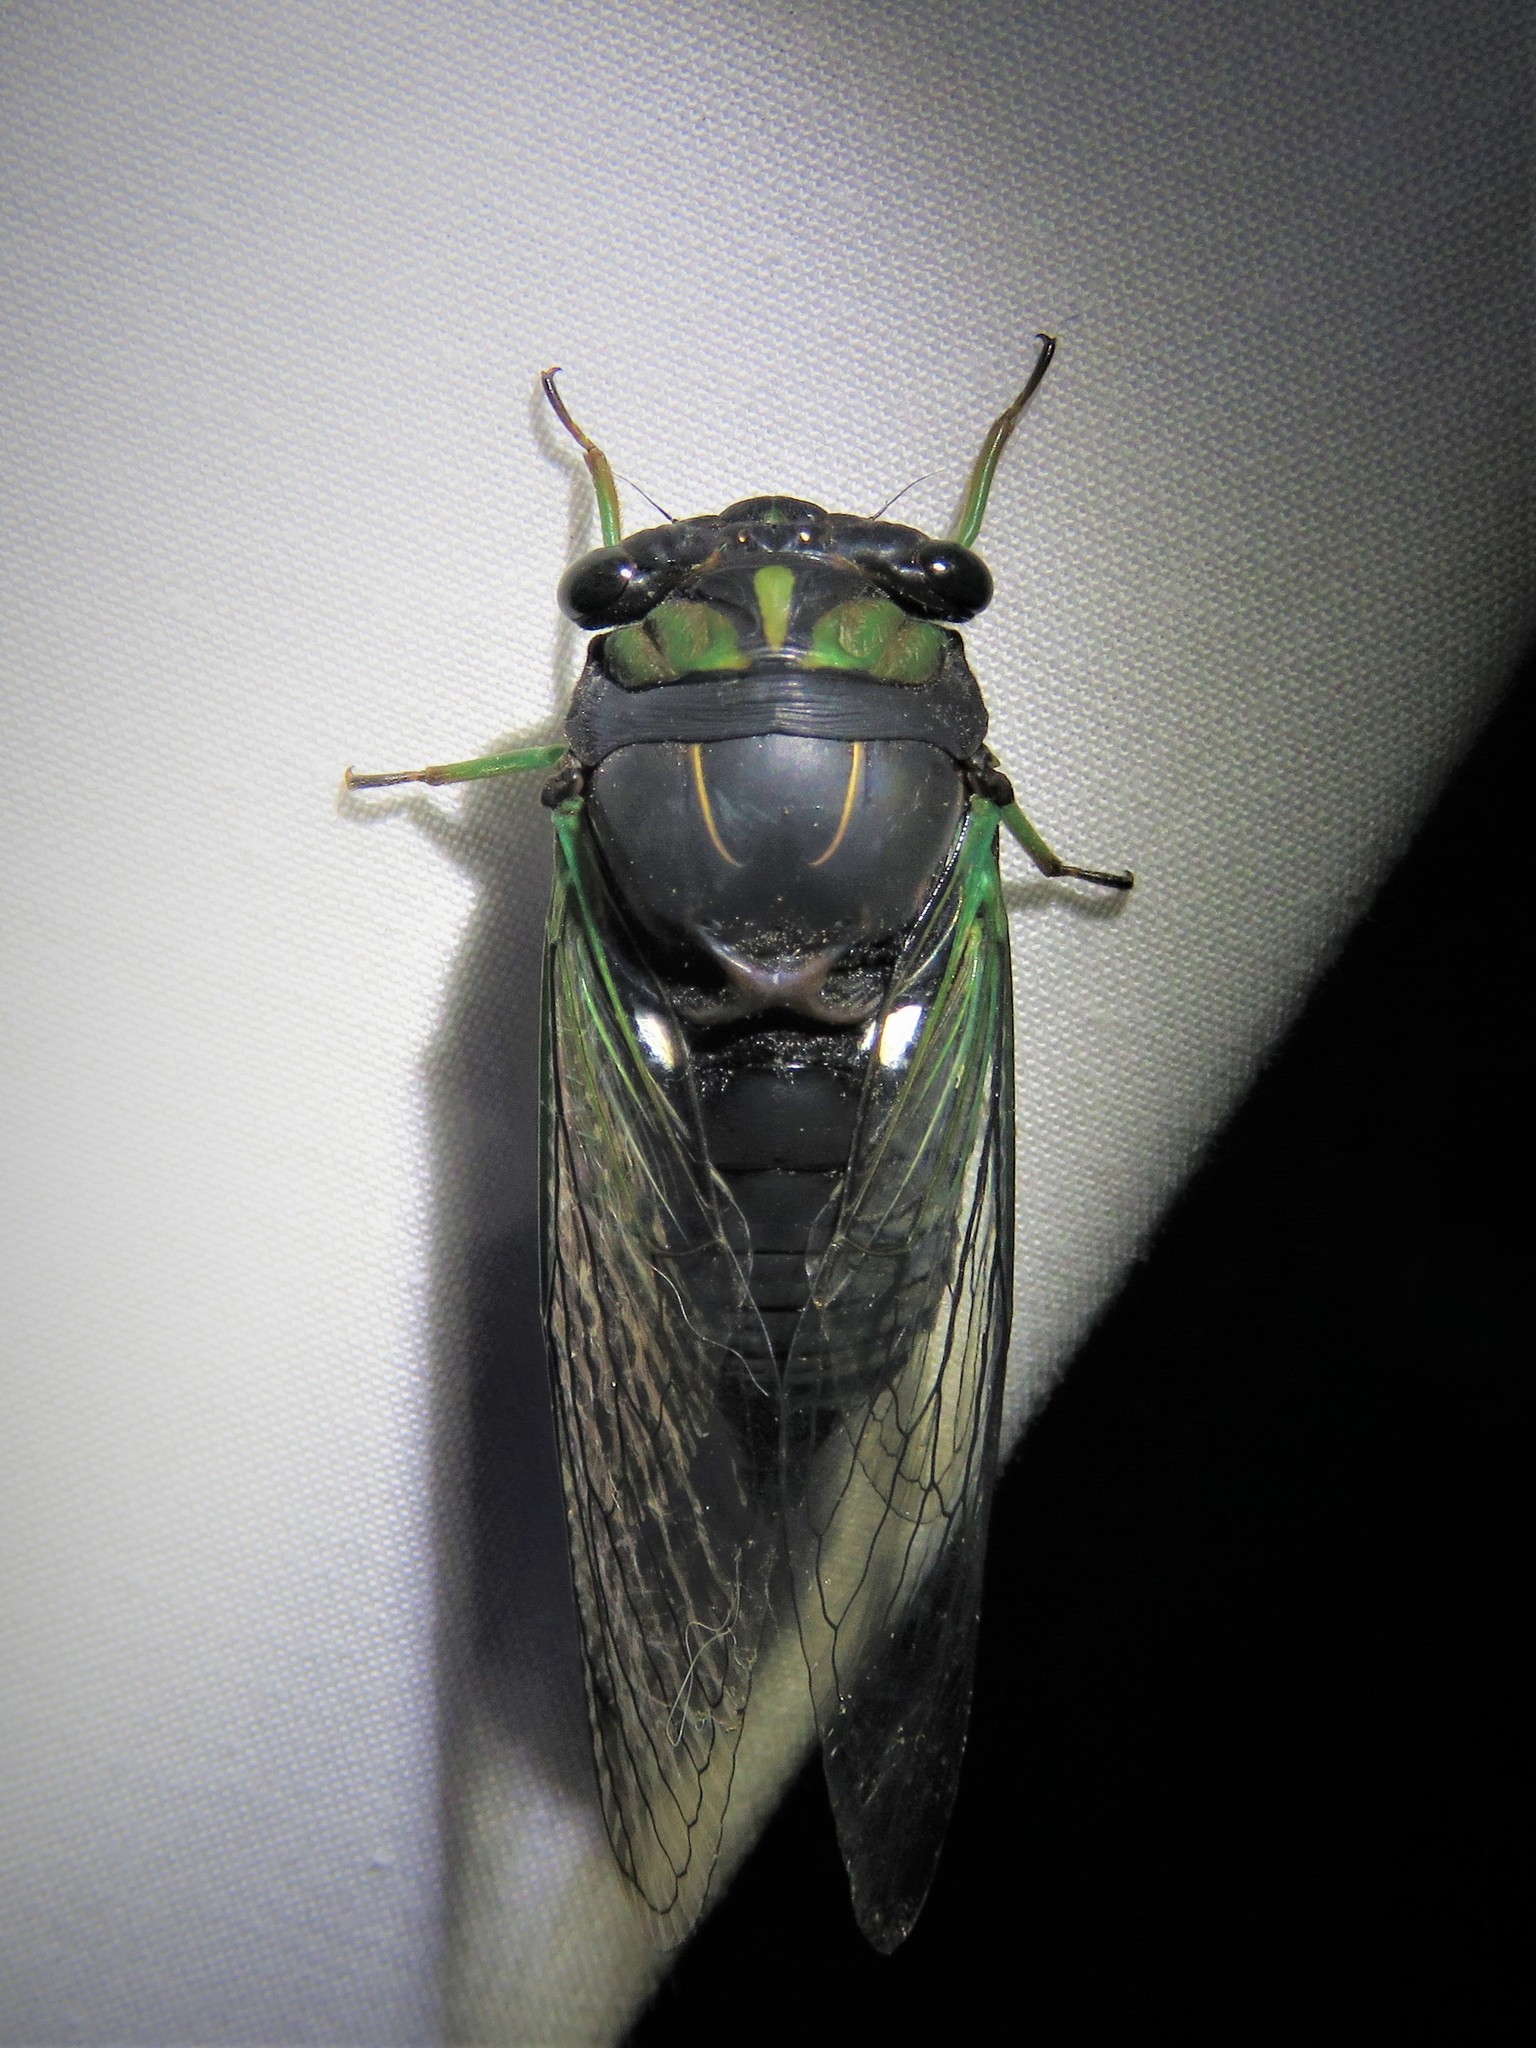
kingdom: Animalia
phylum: Arthropoda
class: Insecta
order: Hemiptera
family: Cicadidae
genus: Neotibicen
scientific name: Neotibicen tibicen
